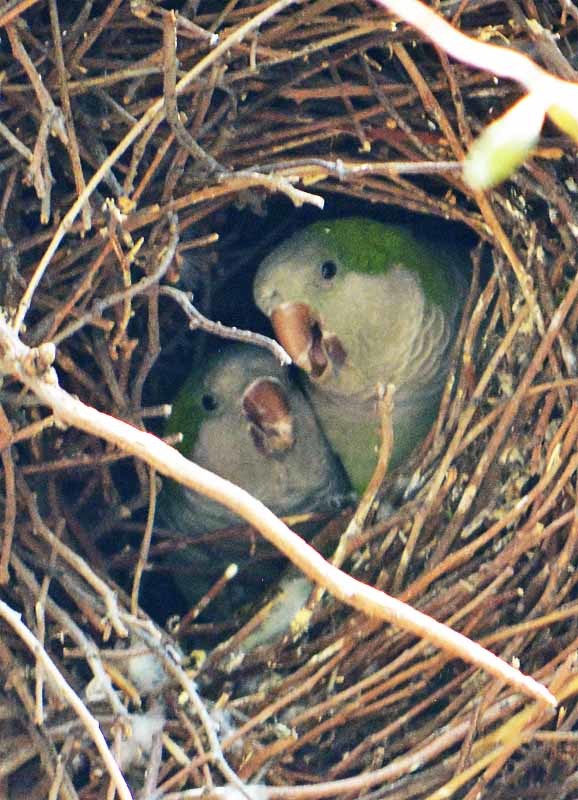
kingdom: Animalia
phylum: Chordata
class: Aves
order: Psittaciformes
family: Psittacidae
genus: Myiopsitta
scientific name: Myiopsitta monachus
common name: Monk parakeet
